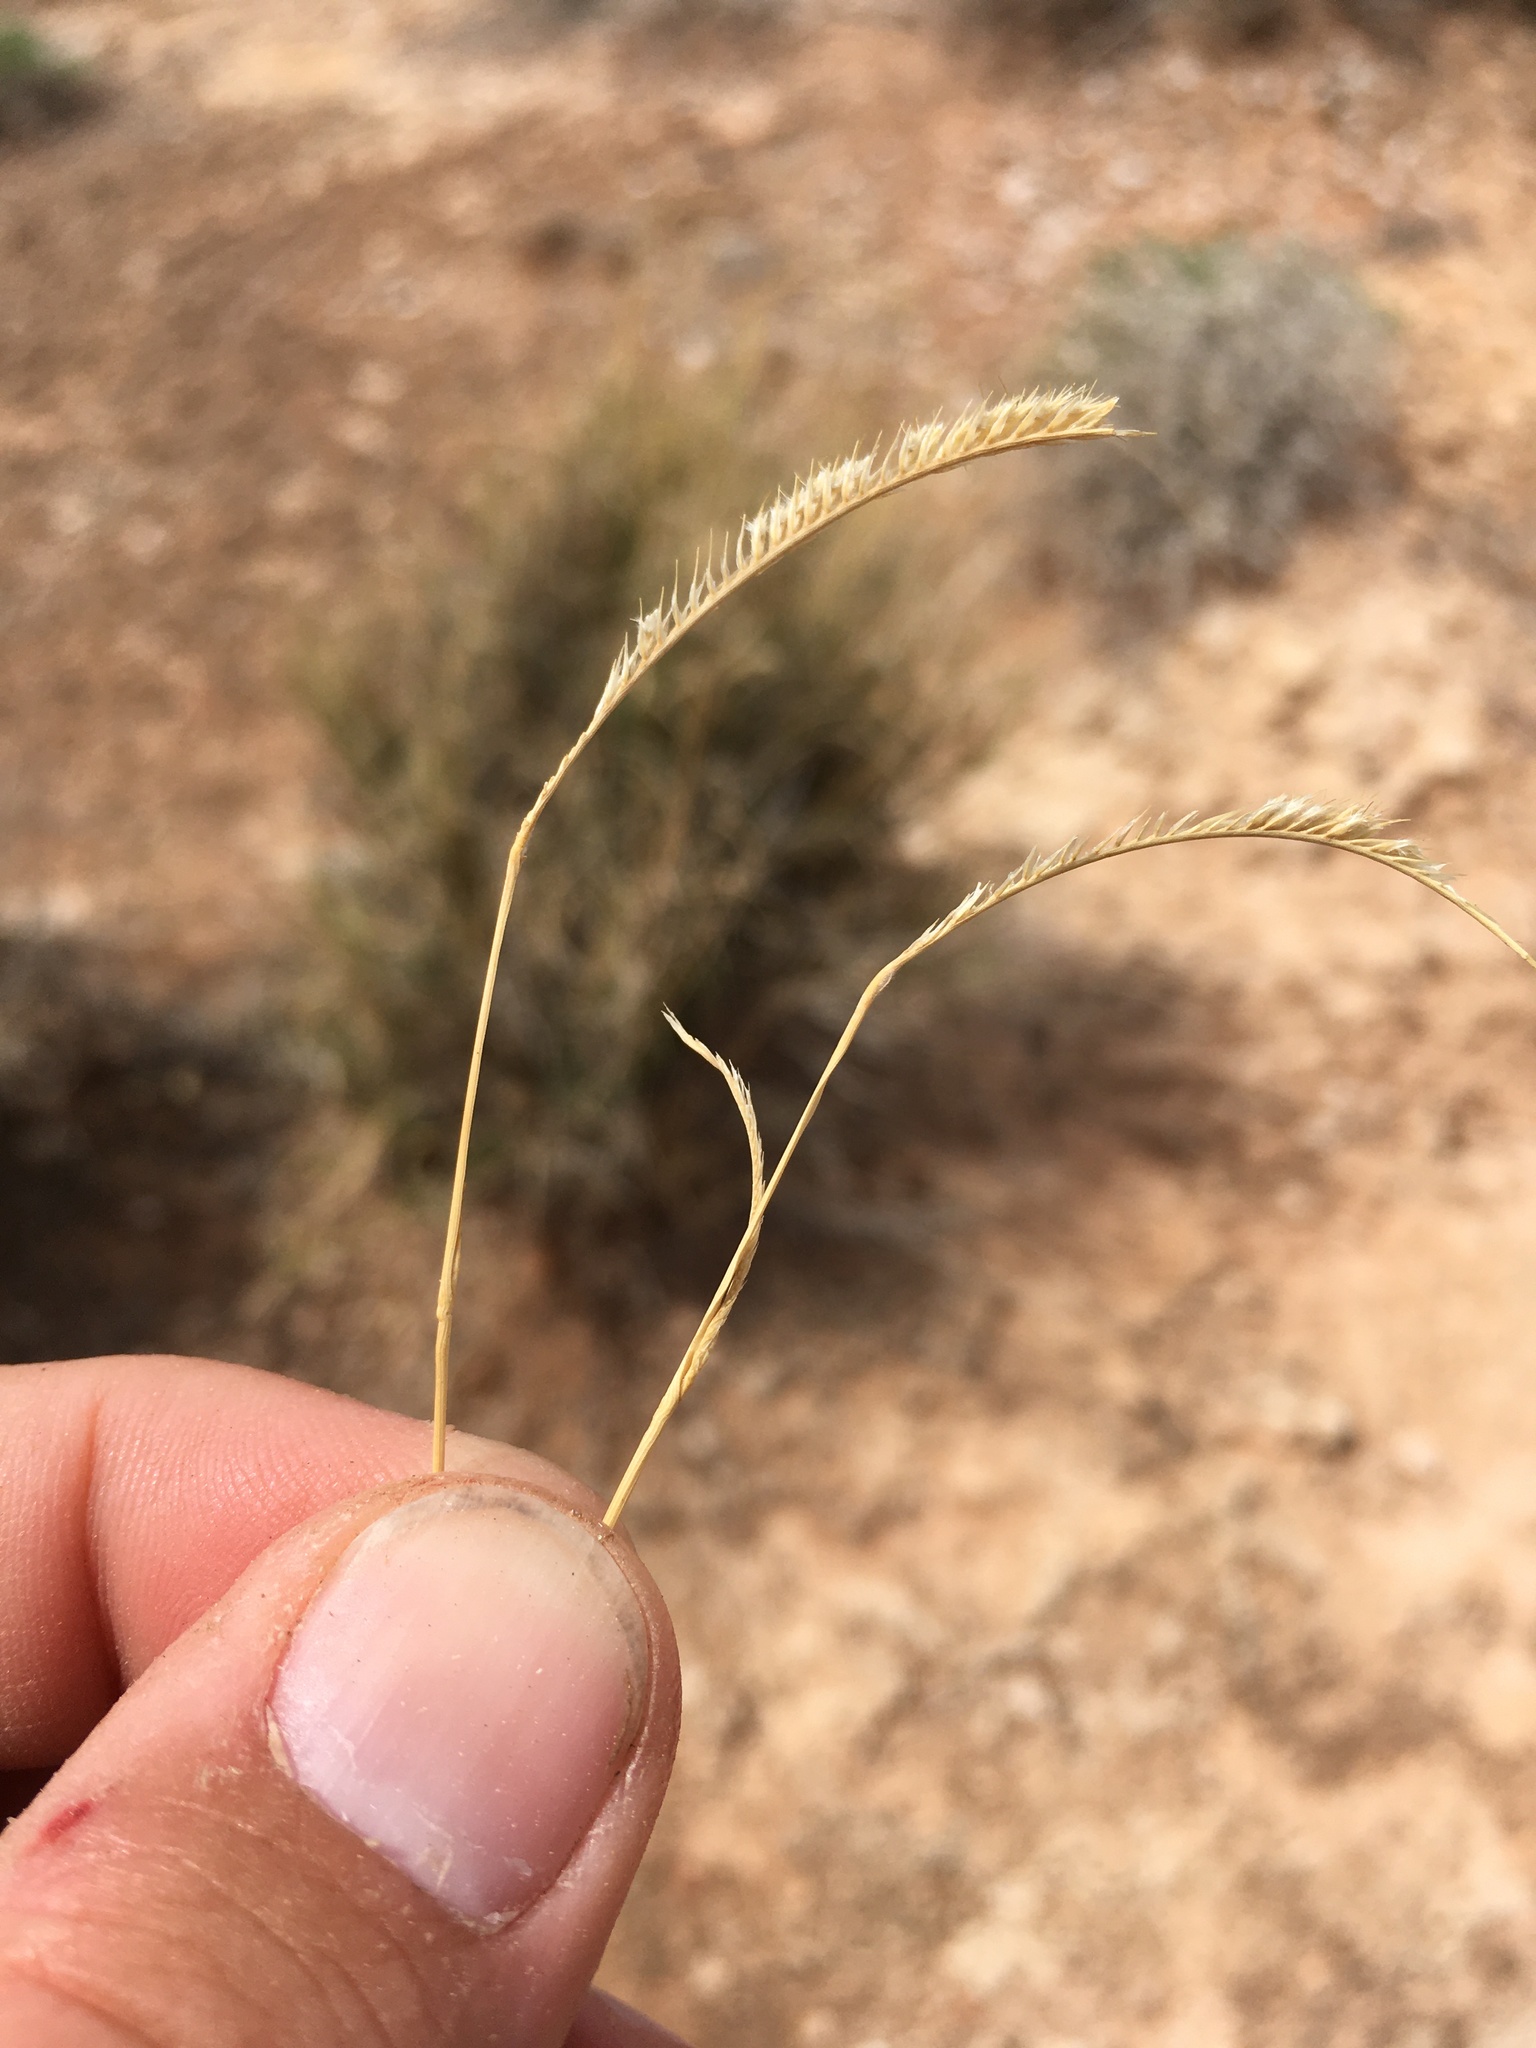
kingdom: Plantae
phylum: Tracheophyta
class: Liliopsida
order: Poales
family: Poaceae
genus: Bouteloua
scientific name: Bouteloua breviseta
